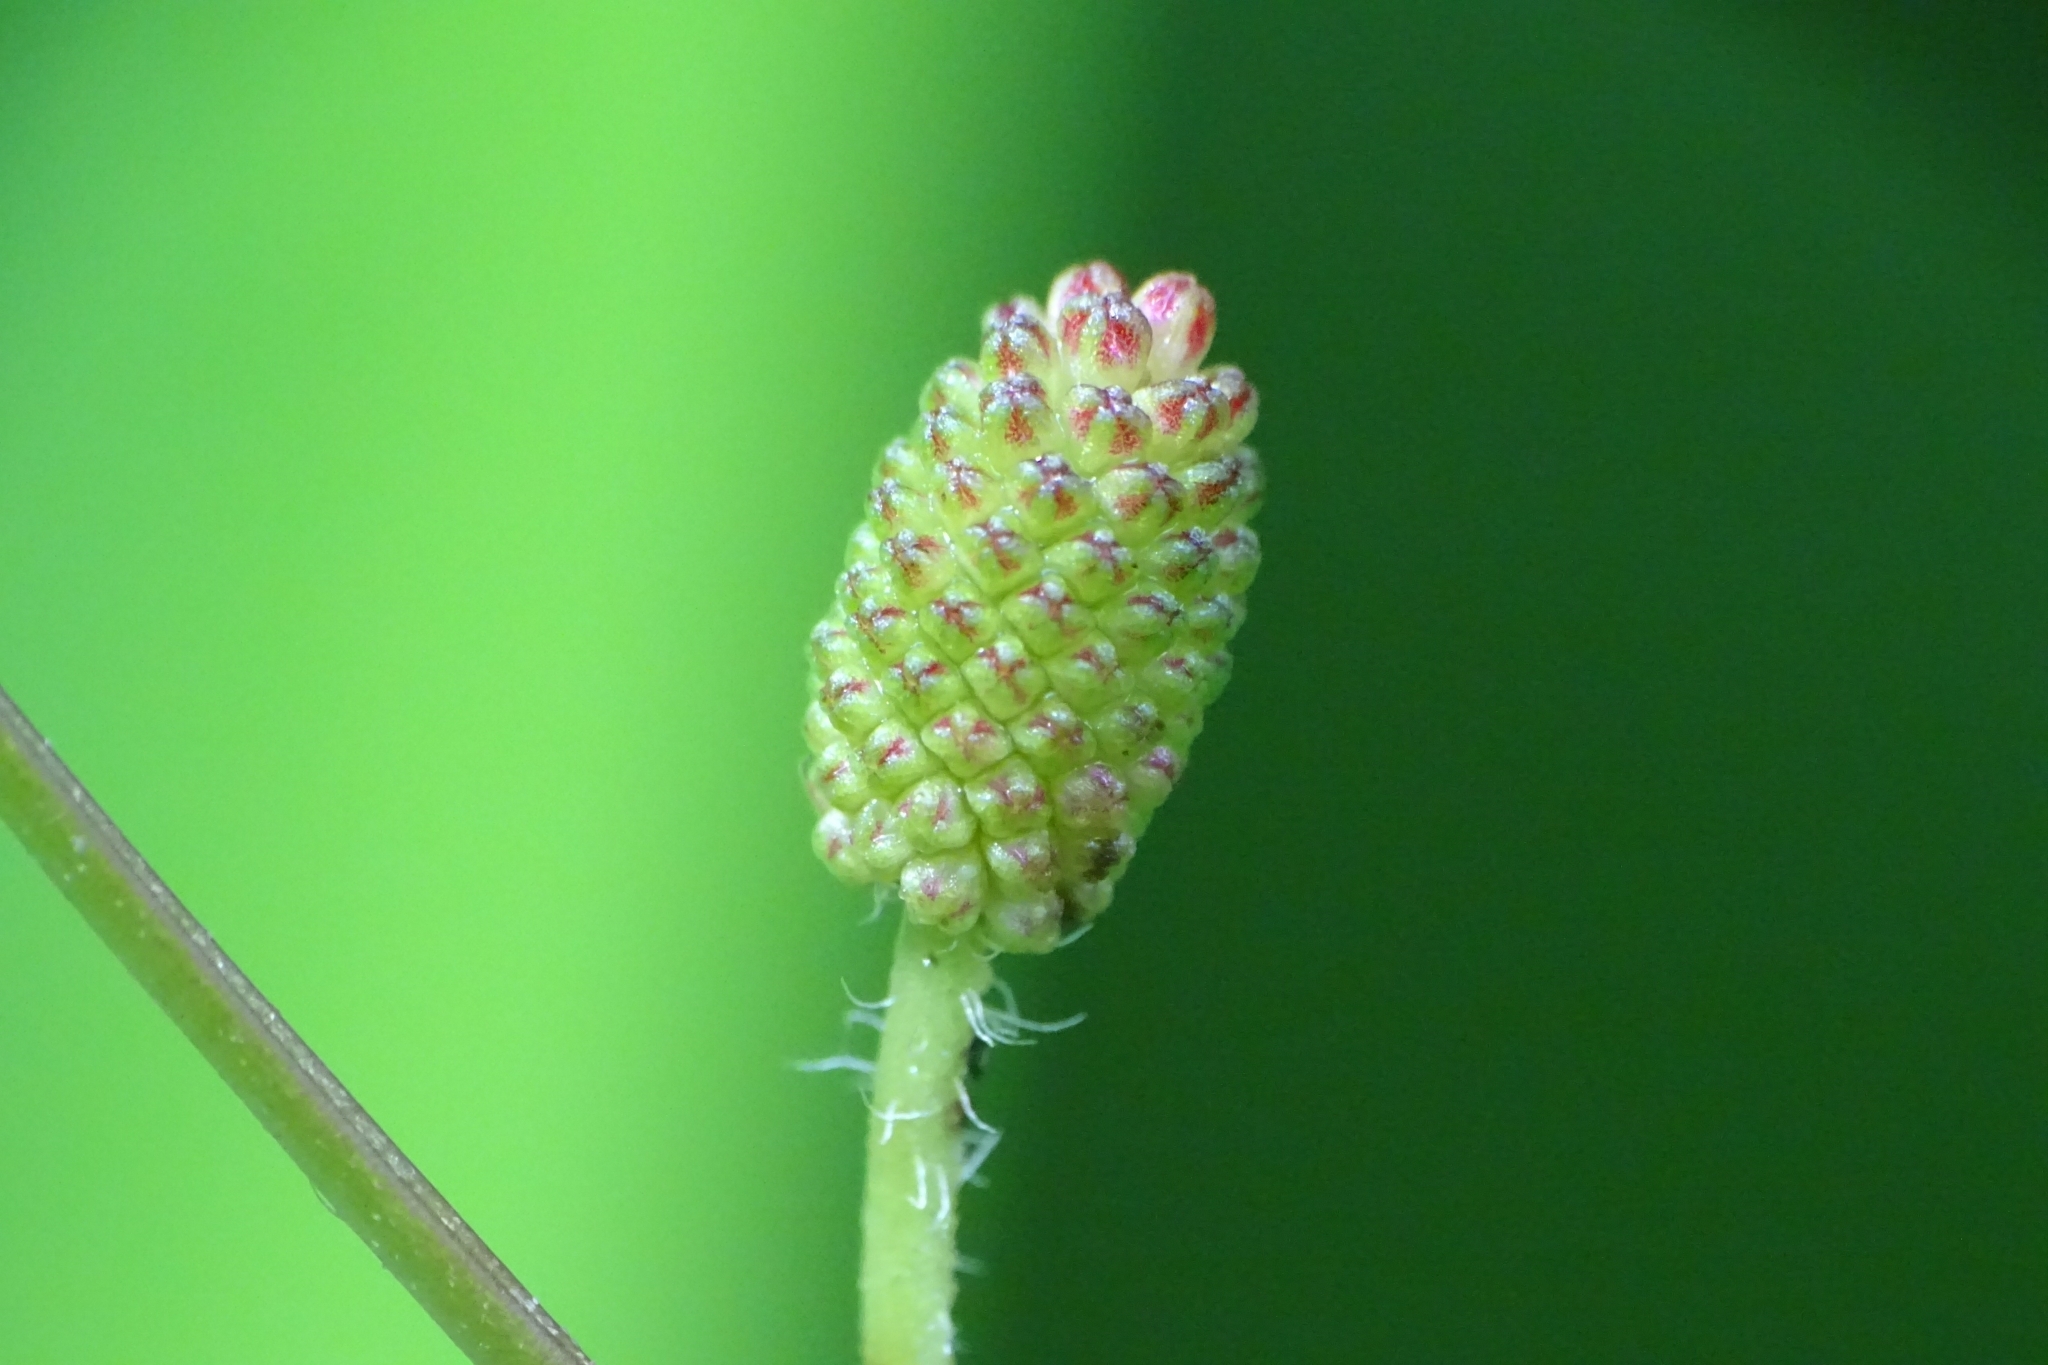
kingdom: Plantae
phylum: Tracheophyta
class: Magnoliopsida
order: Fabales
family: Fabaceae
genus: Mimosa
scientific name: Mimosa pudica
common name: Sensitive plant
